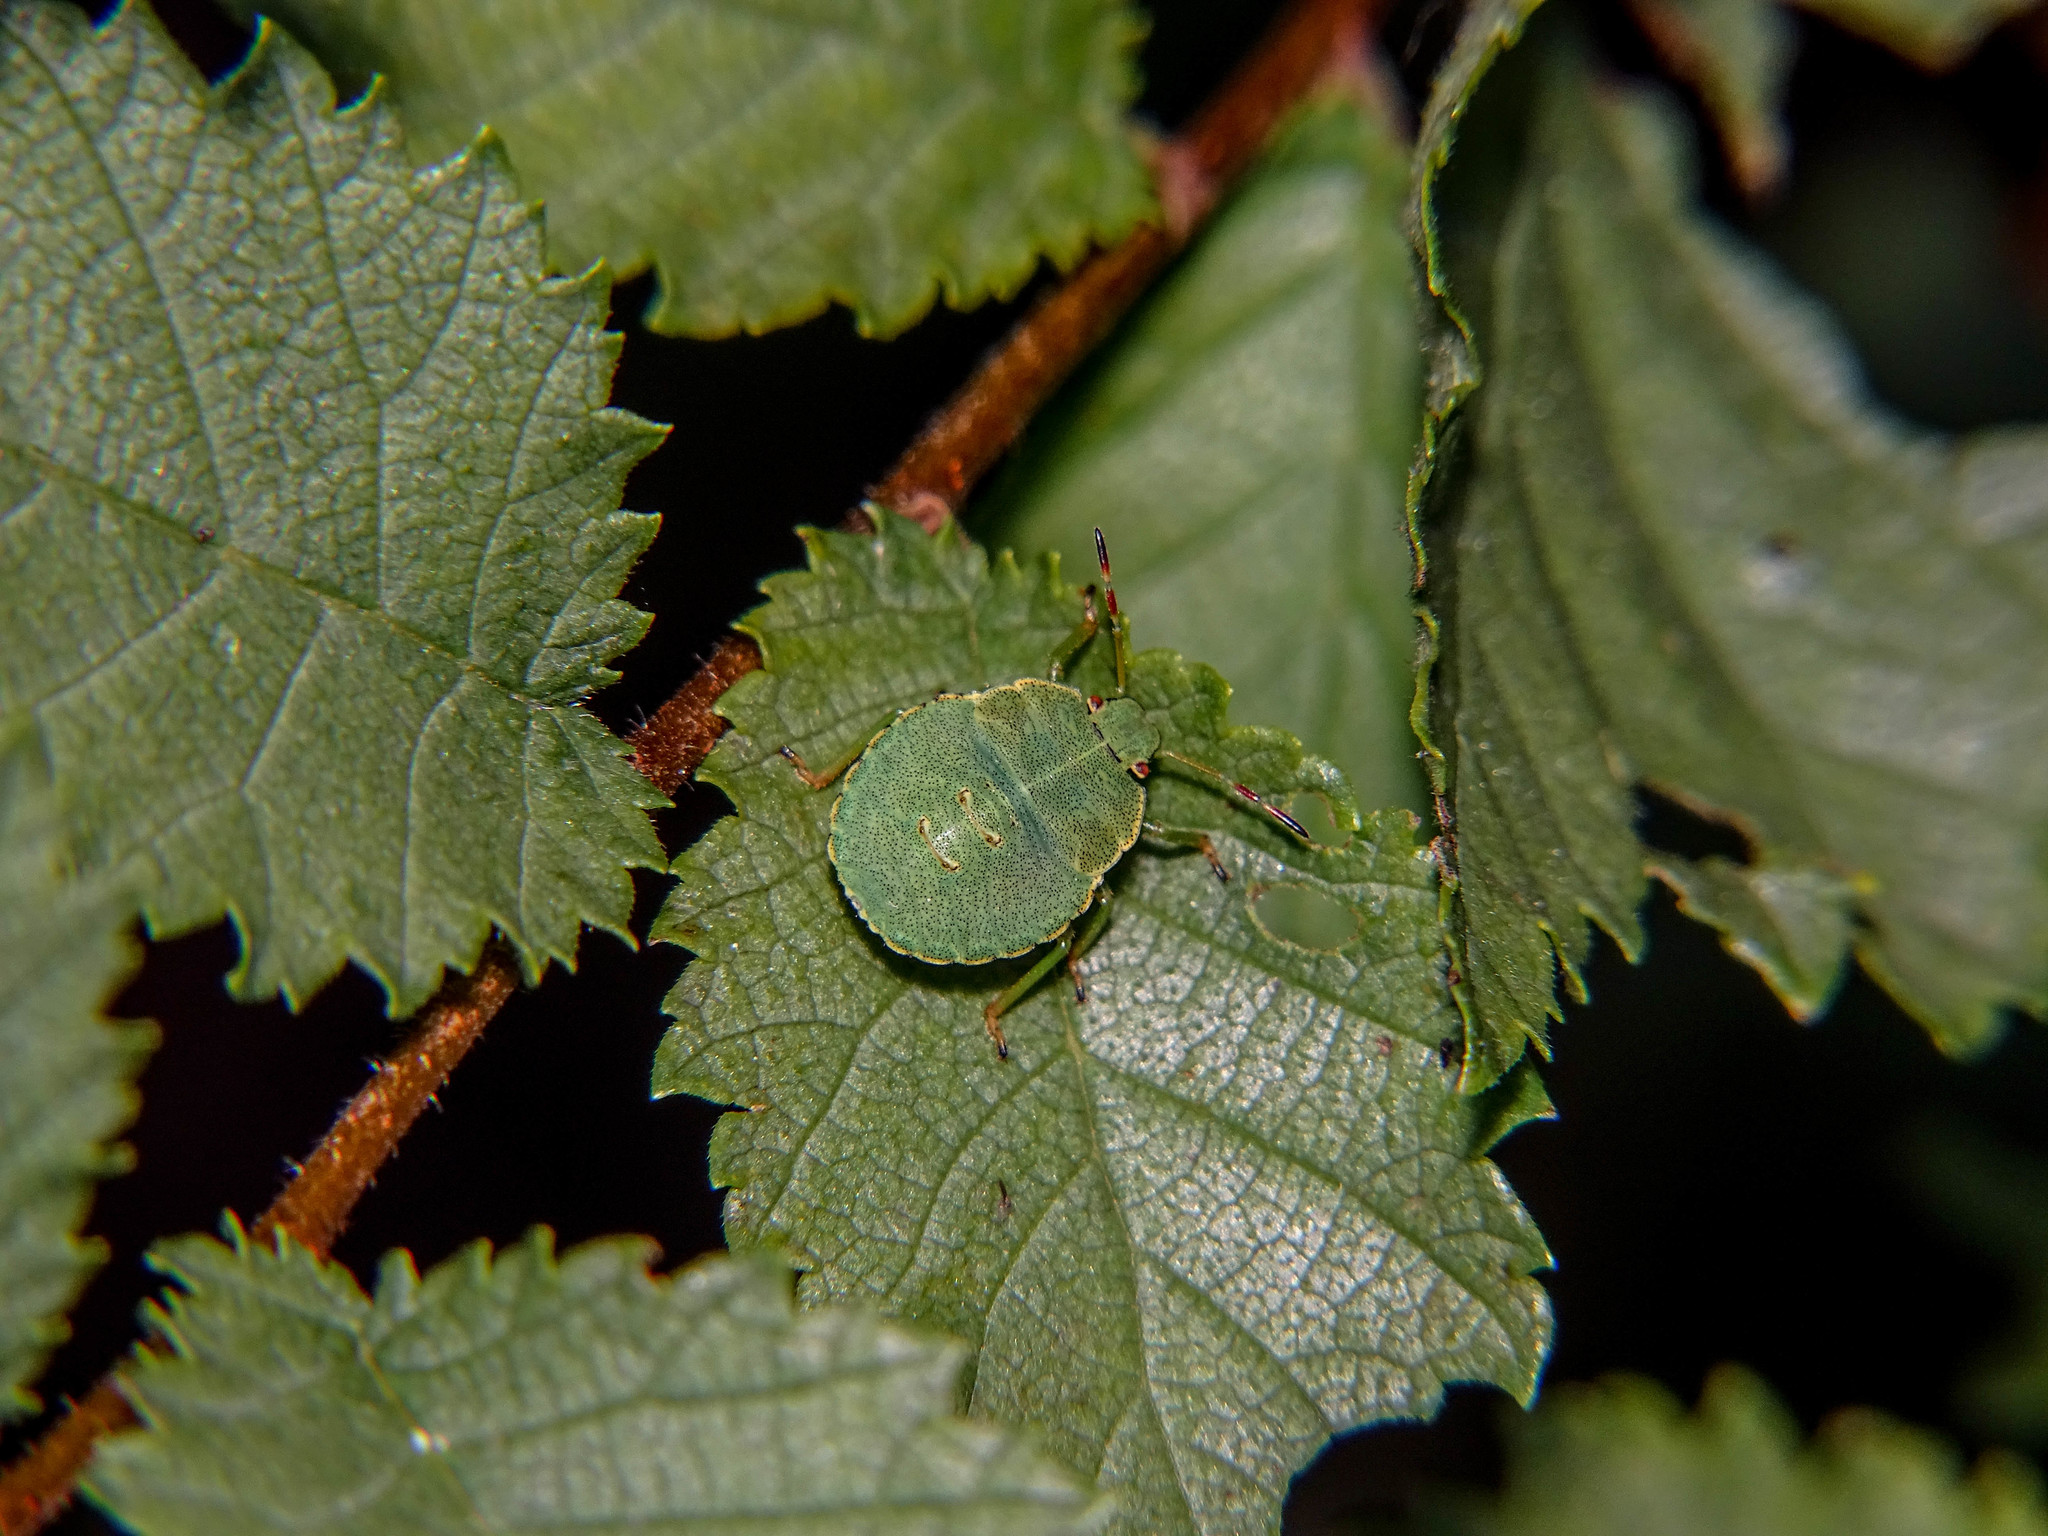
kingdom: Animalia
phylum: Arthropoda
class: Insecta
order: Hemiptera
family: Pentatomidae
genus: Palomena
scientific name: Palomena prasina
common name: Green shieldbug
